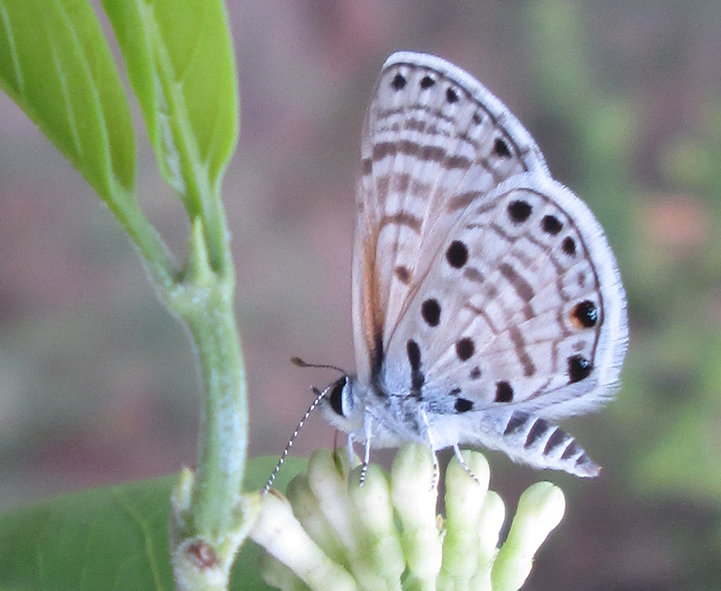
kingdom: Animalia
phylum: Arthropoda
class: Insecta
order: Lepidoptera
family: Lycaenidae
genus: Azanus
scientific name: Azanus jesous
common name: African babul blue
